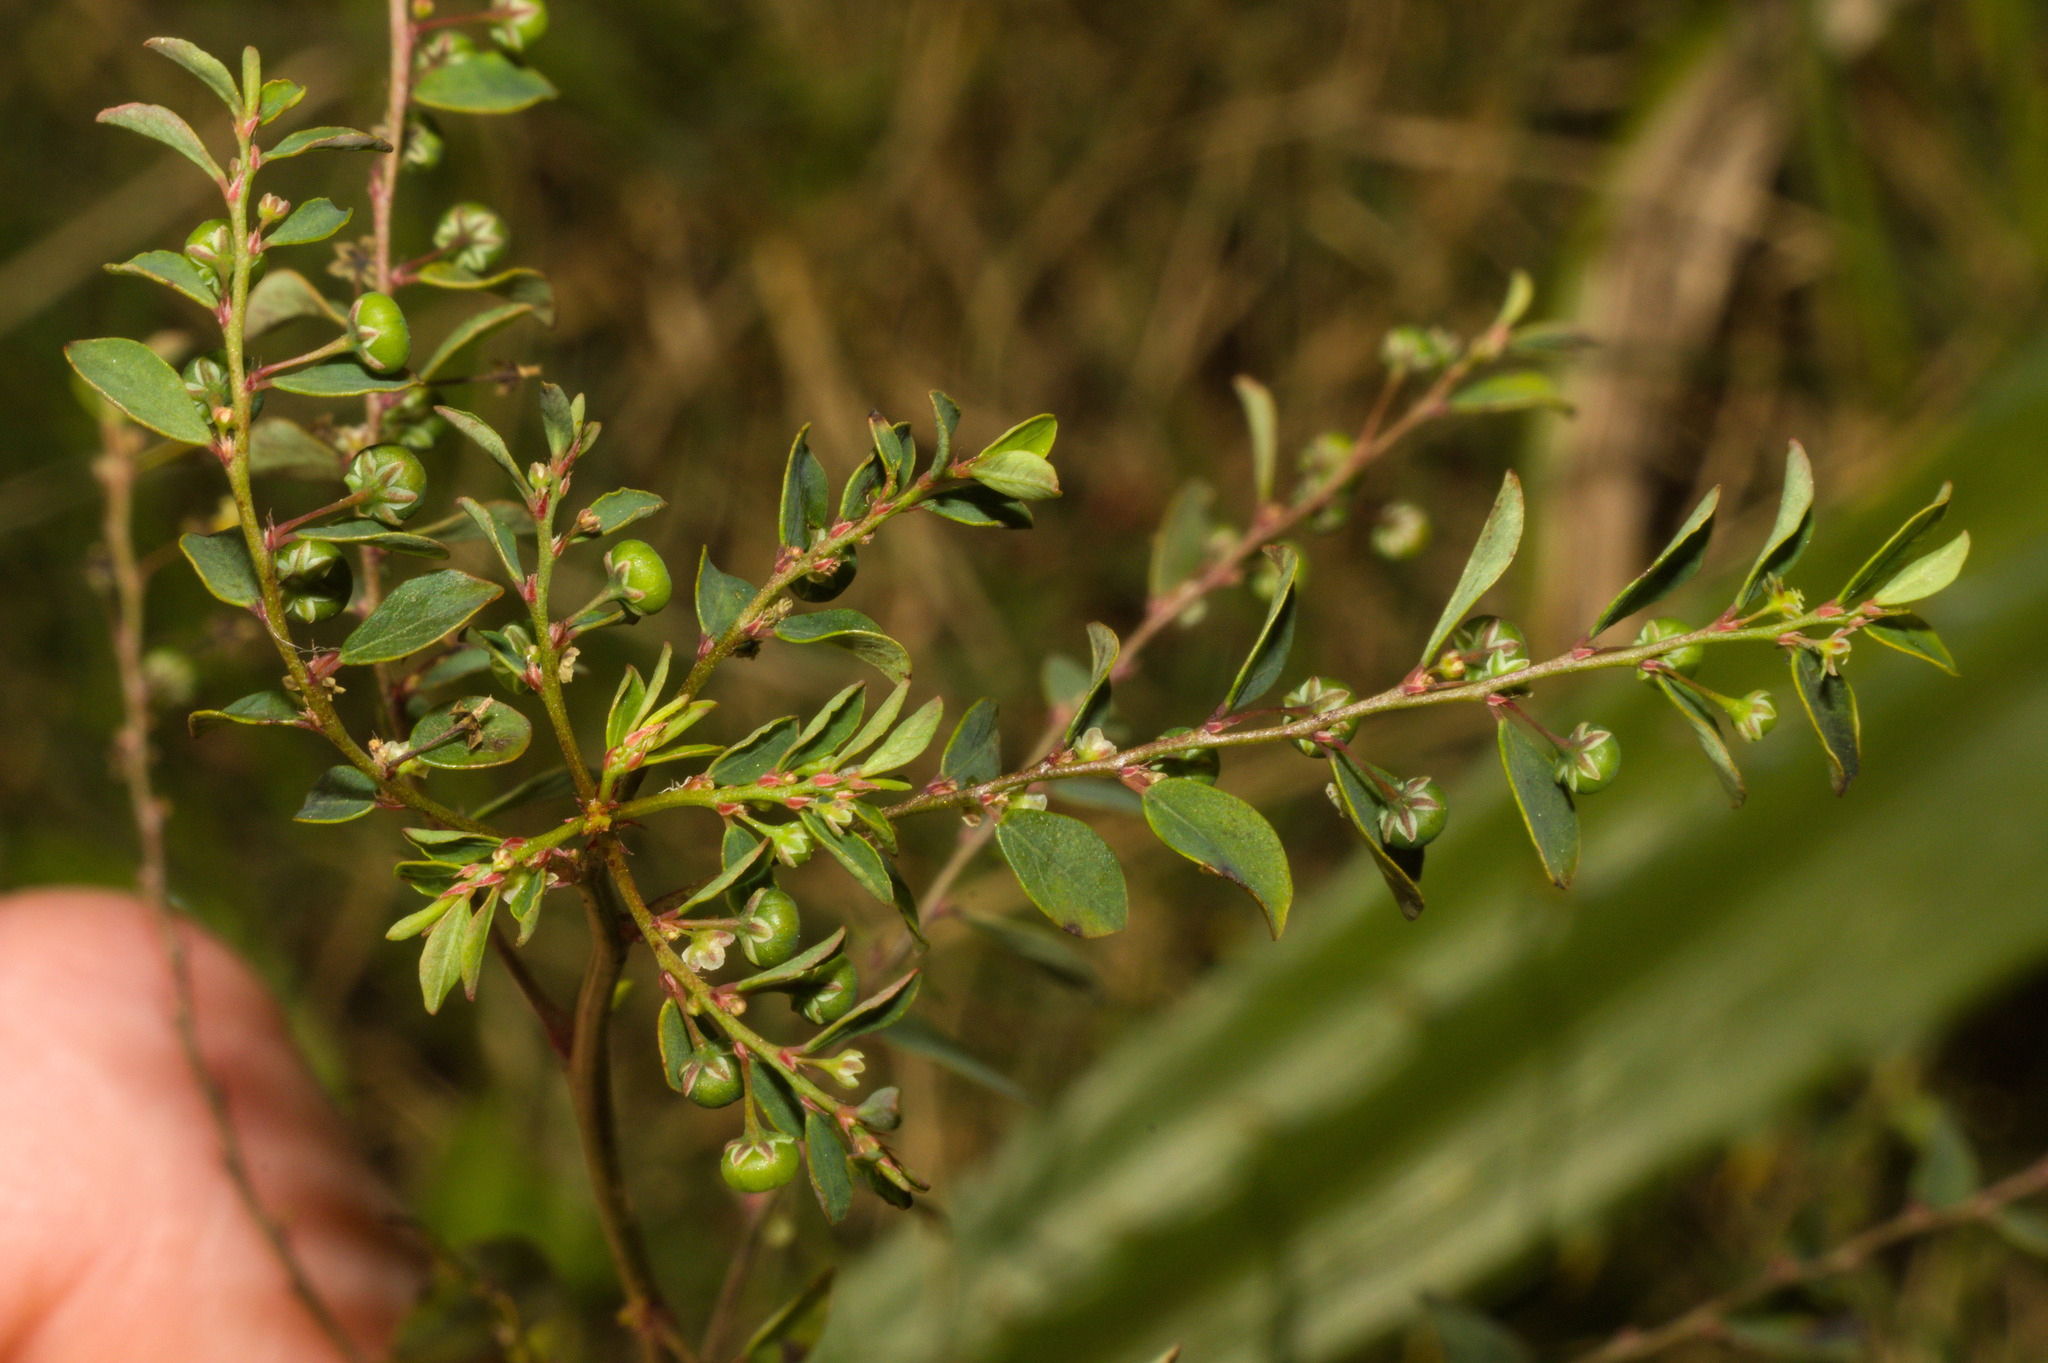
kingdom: Plantae
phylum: Tracheophyta
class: Magnoliopsida
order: Malpighiales
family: Phyllanthaceae
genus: Phyllanthus
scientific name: Phyllanthus tenellus
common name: Mascarene island leaf-flower
